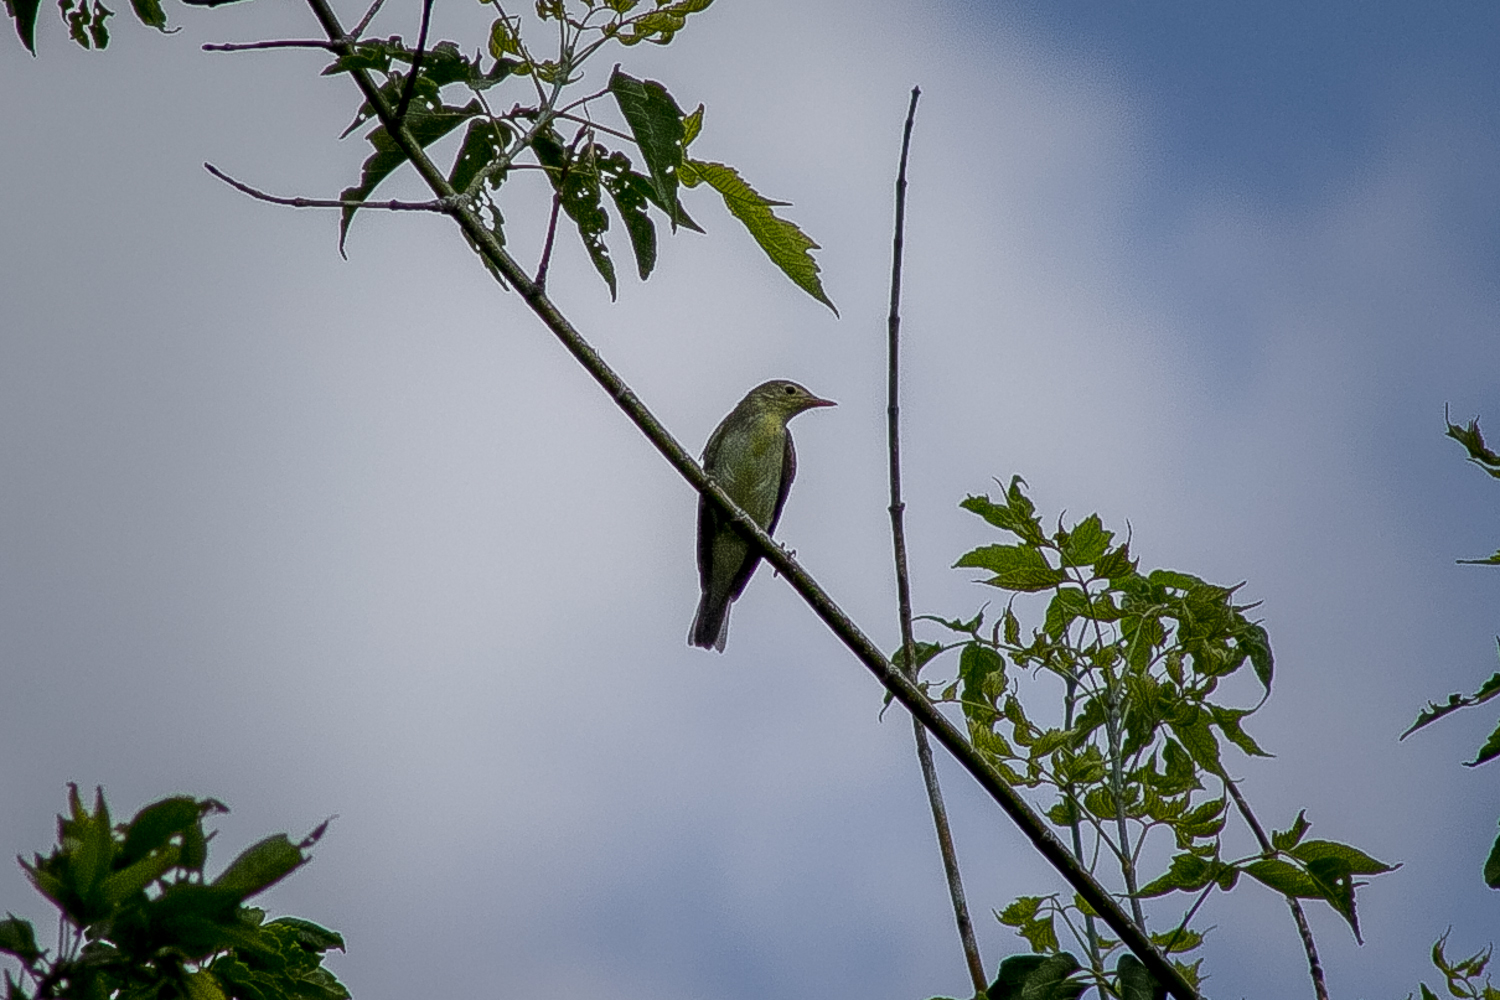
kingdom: Animalia
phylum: Chordata
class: Aves
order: Passeriformes
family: Oriolidae
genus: Oriolus
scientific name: Oriolus oriolus
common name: Eurasian golden oriole
